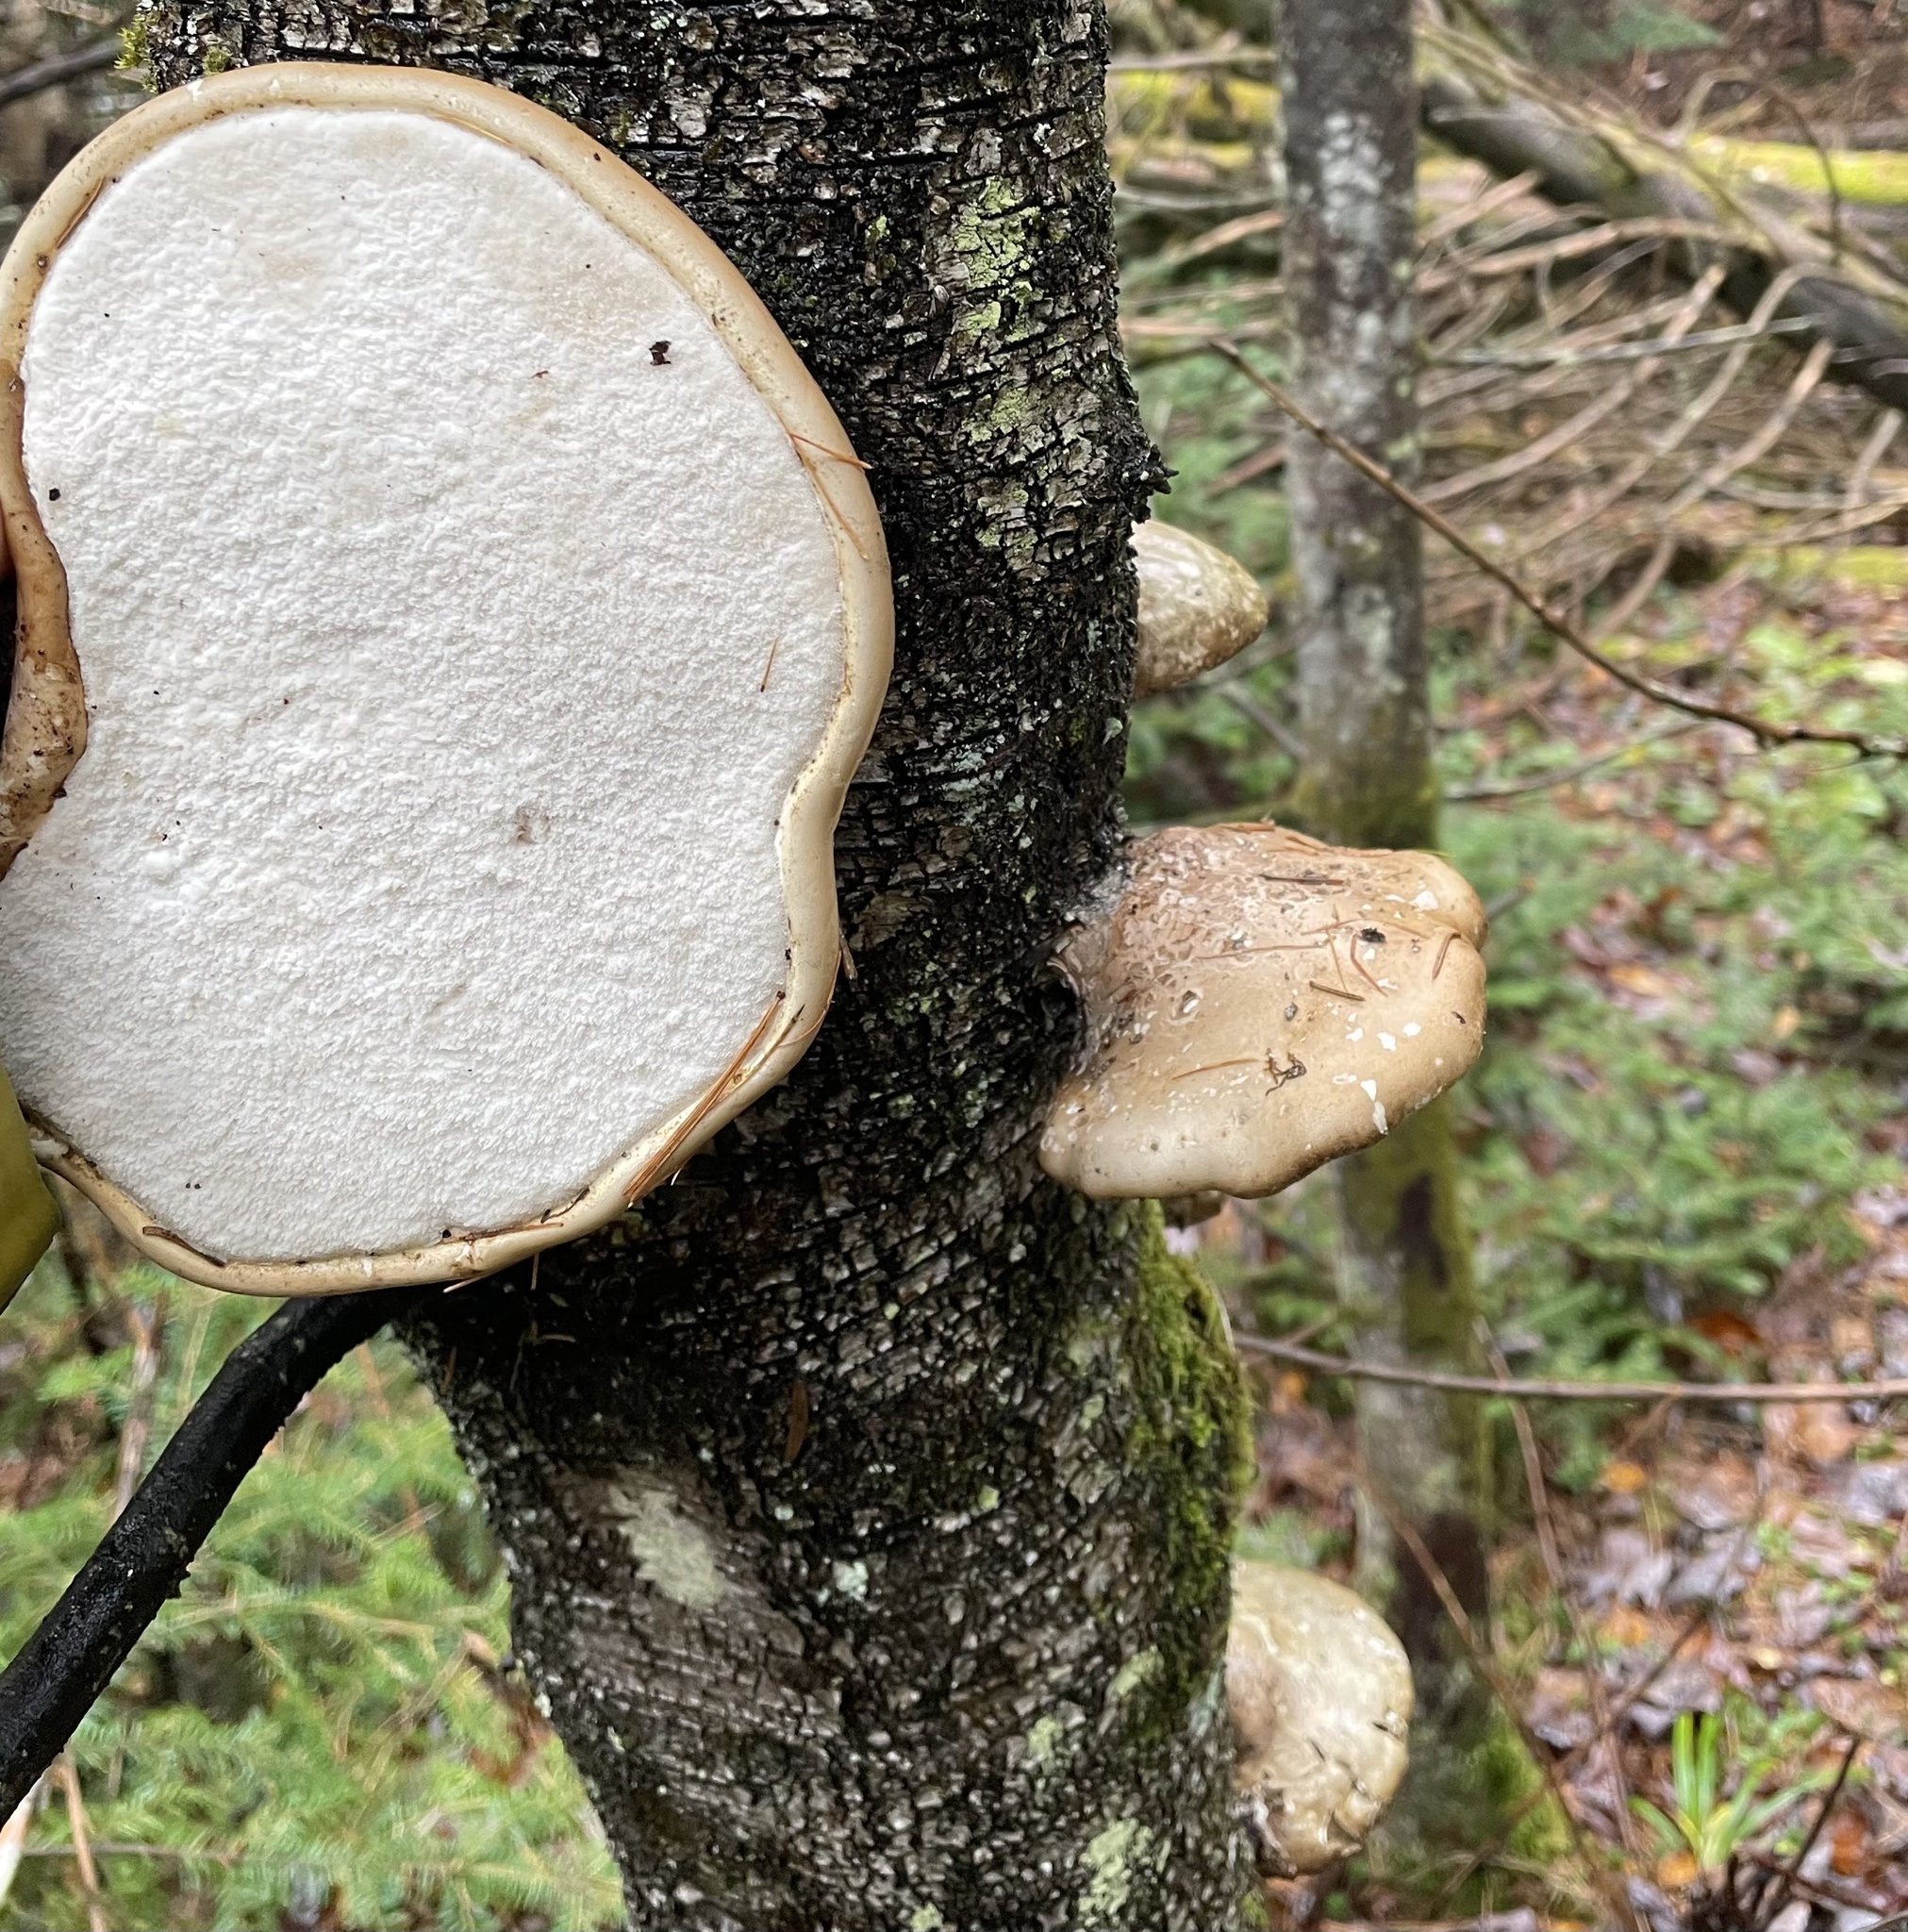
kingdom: Fungi
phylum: Basidiomycota
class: Agaricomycetes
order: Polyporales
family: Fomitopsidaceae
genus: Fomitopsis
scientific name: Fomitopsis betulina
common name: Birch polypore
